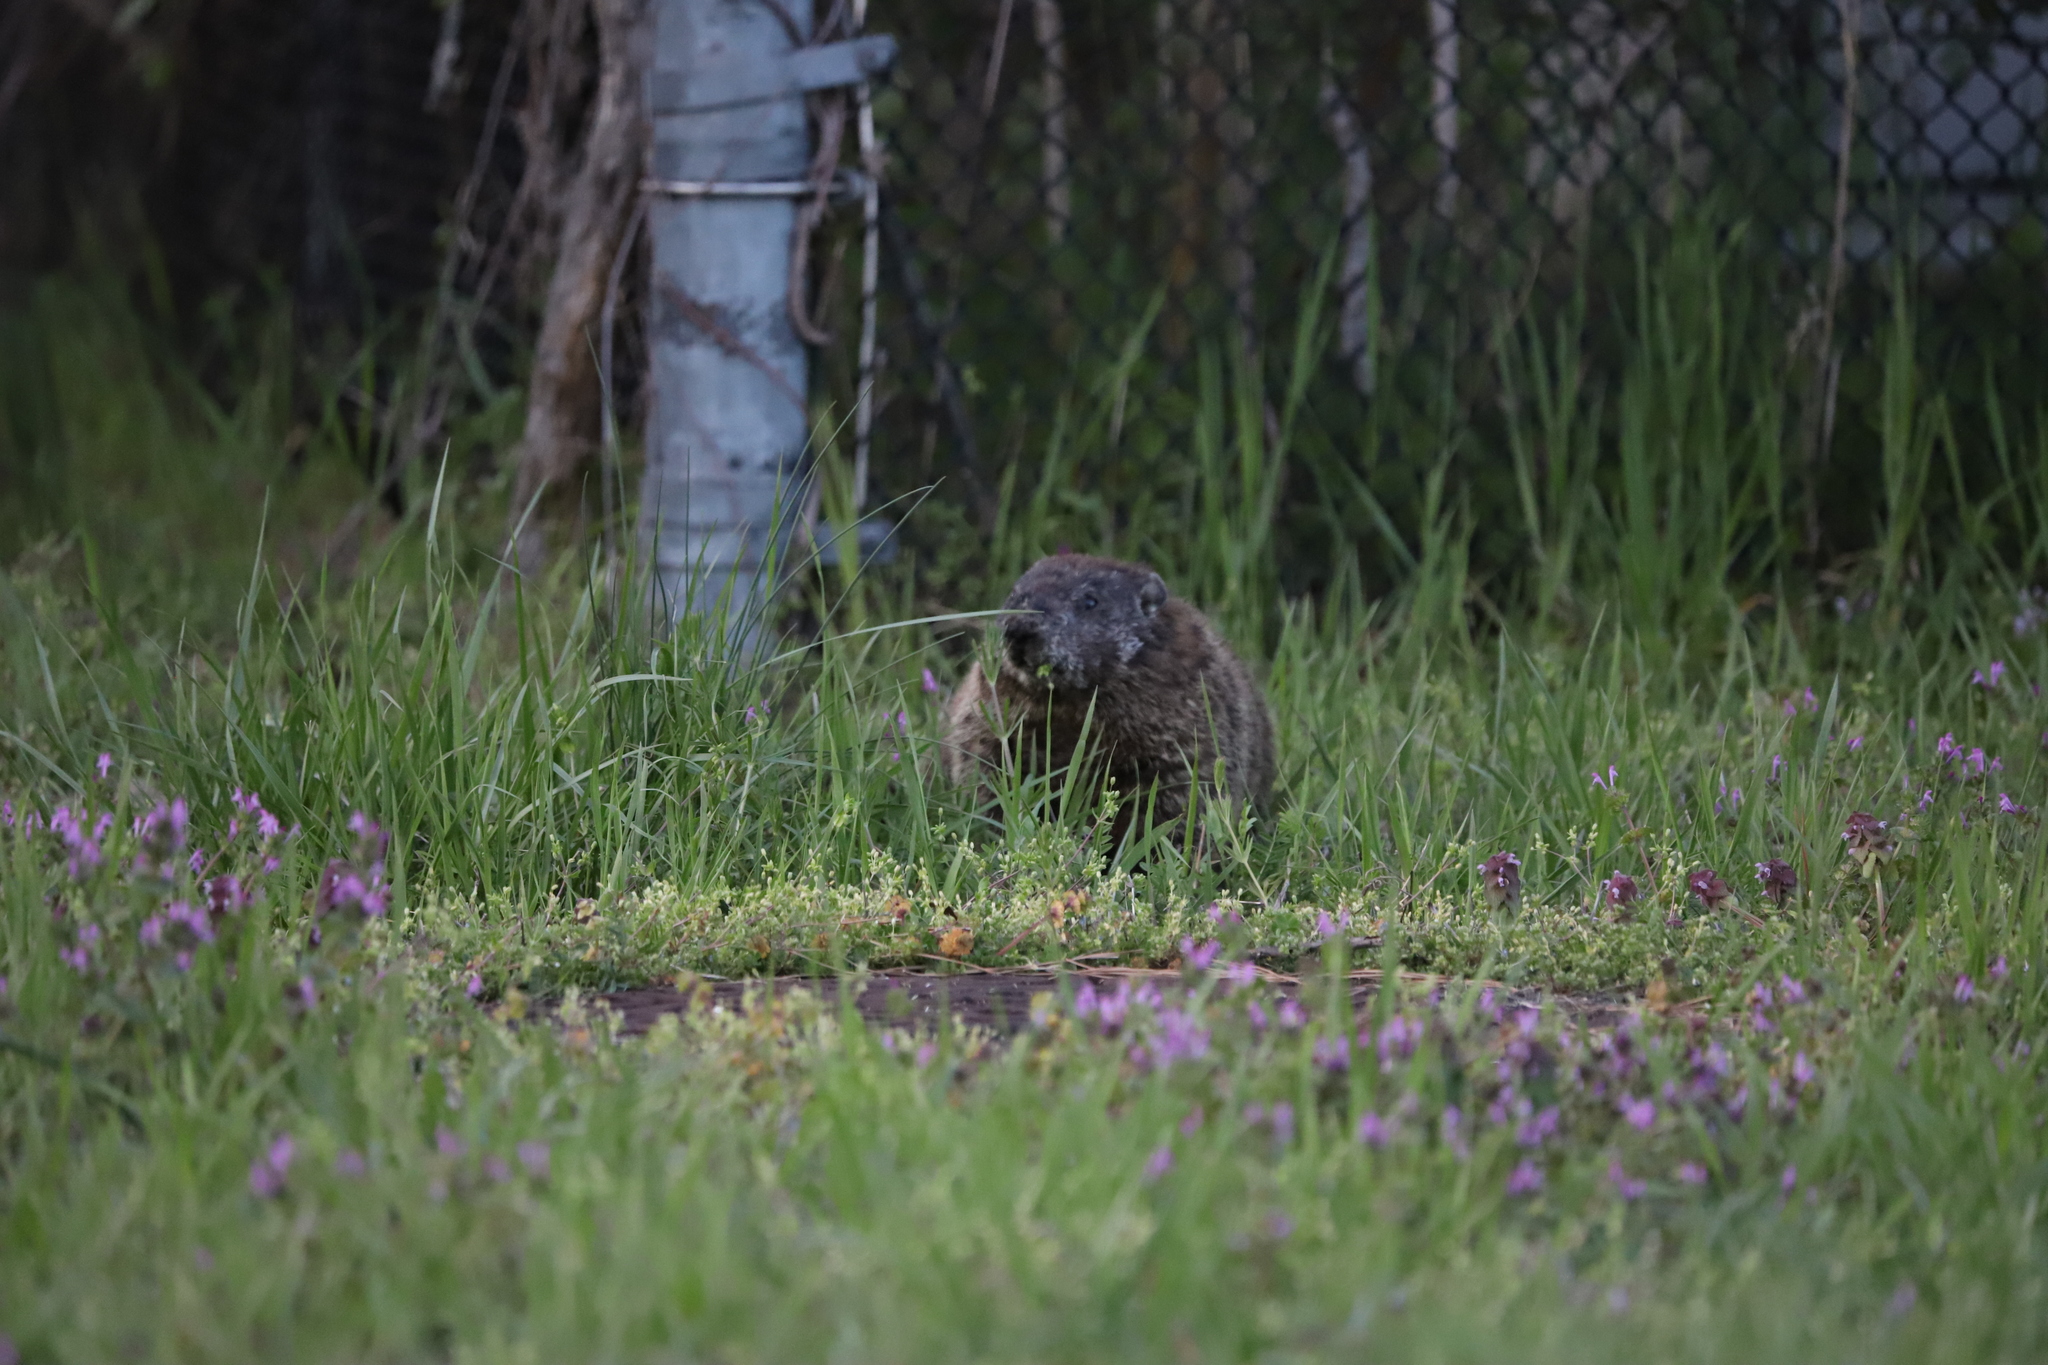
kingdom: Animalia
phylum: Chordata
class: Mammalia
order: Rodentia
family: Sciuridae
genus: Marmota
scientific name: Marmota monax
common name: Groundhog
